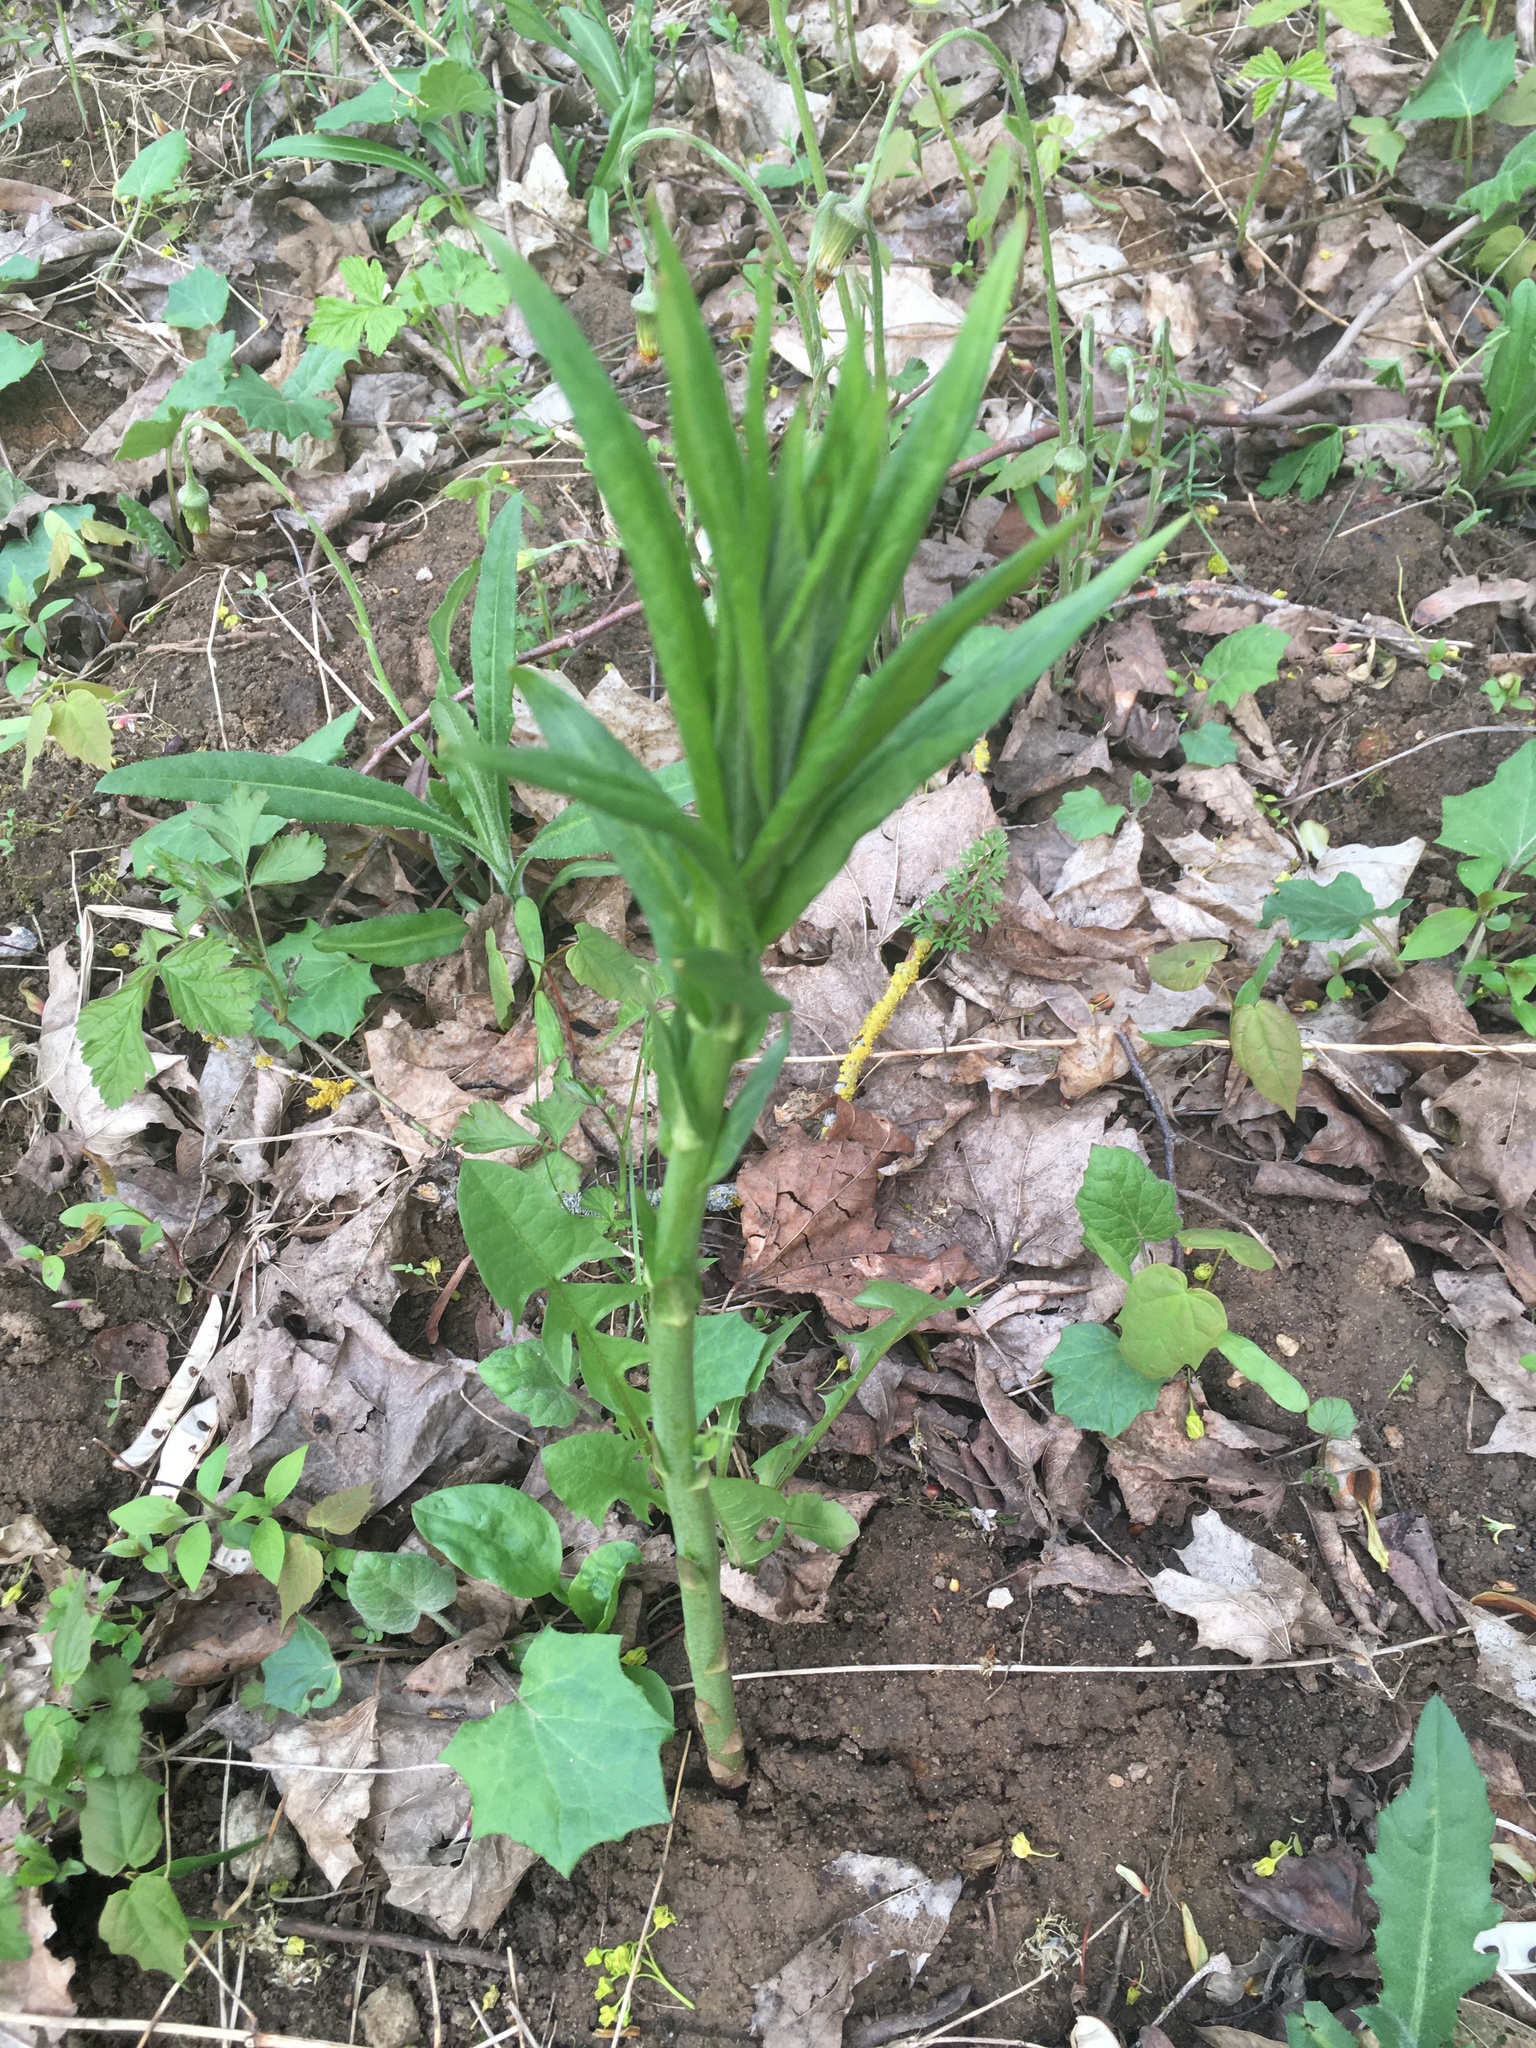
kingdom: Plantae
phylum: Tracheophyta
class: Magnoliopsida
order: Ericales
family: Primulaceae
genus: Lysimachia
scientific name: Lysimachia thyrsiflora
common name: Tufted loosestrife
